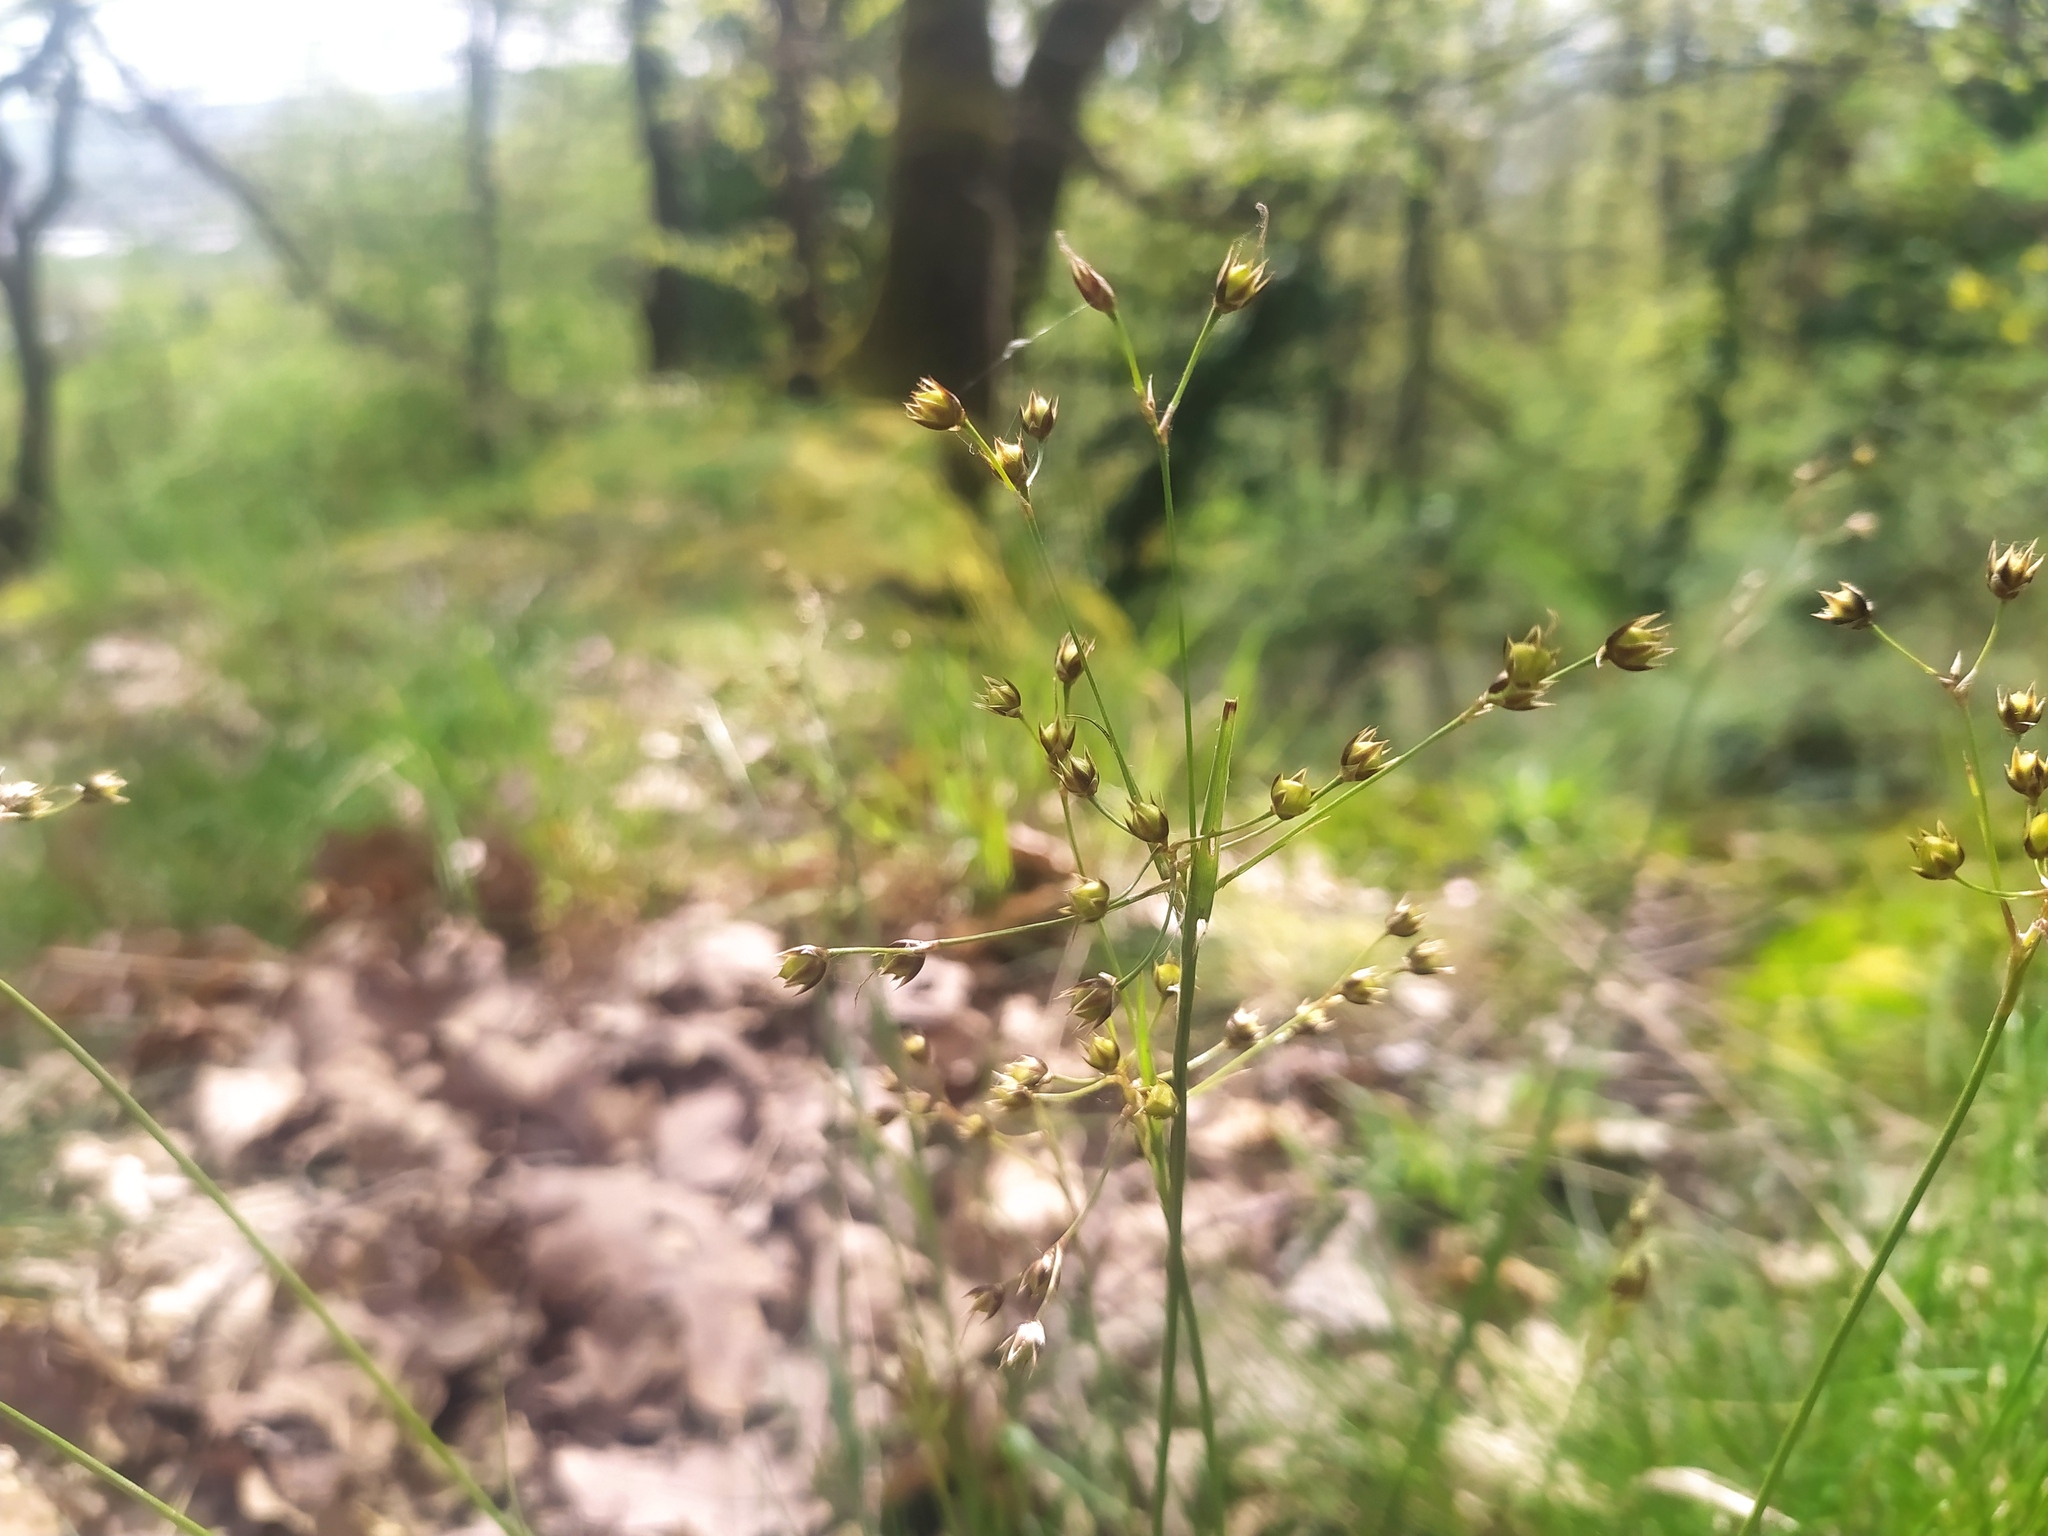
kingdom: Plantae
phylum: Tracheophyta
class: Liliopsida
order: Poales
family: Juncaceae
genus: Luzula
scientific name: Luzula forsteri
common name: Southern wood-rush
